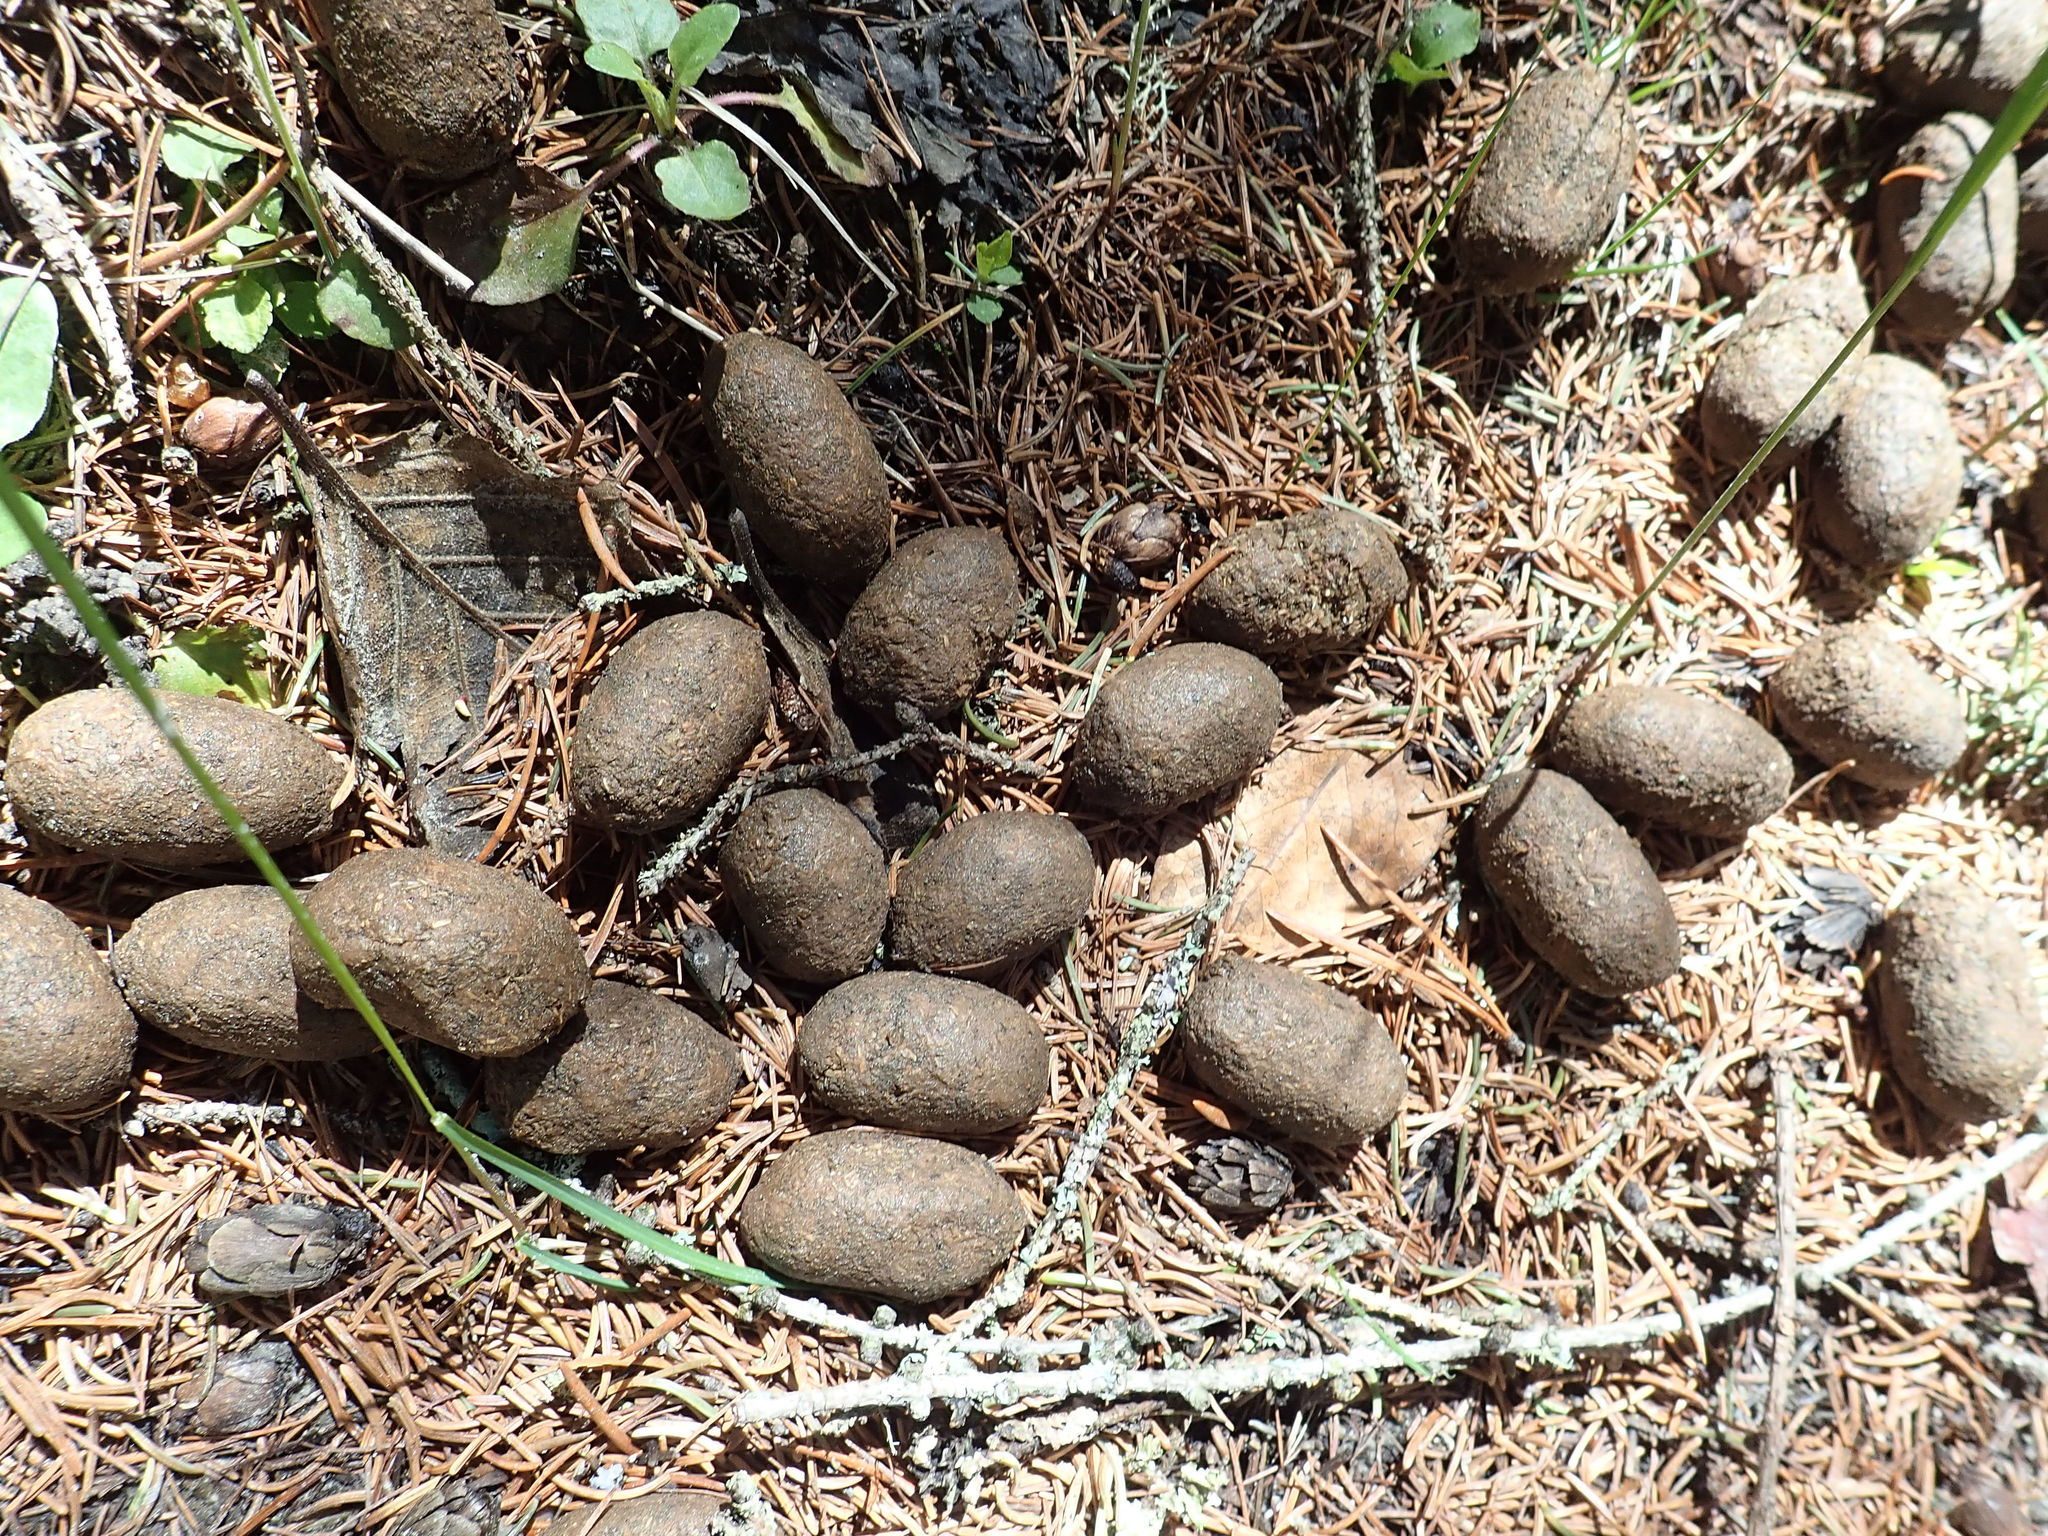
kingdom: Animalia
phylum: Chordata
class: Mammalia
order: Artiodactyla
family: Cervidae
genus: Alces
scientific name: Alces alces
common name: Moose
